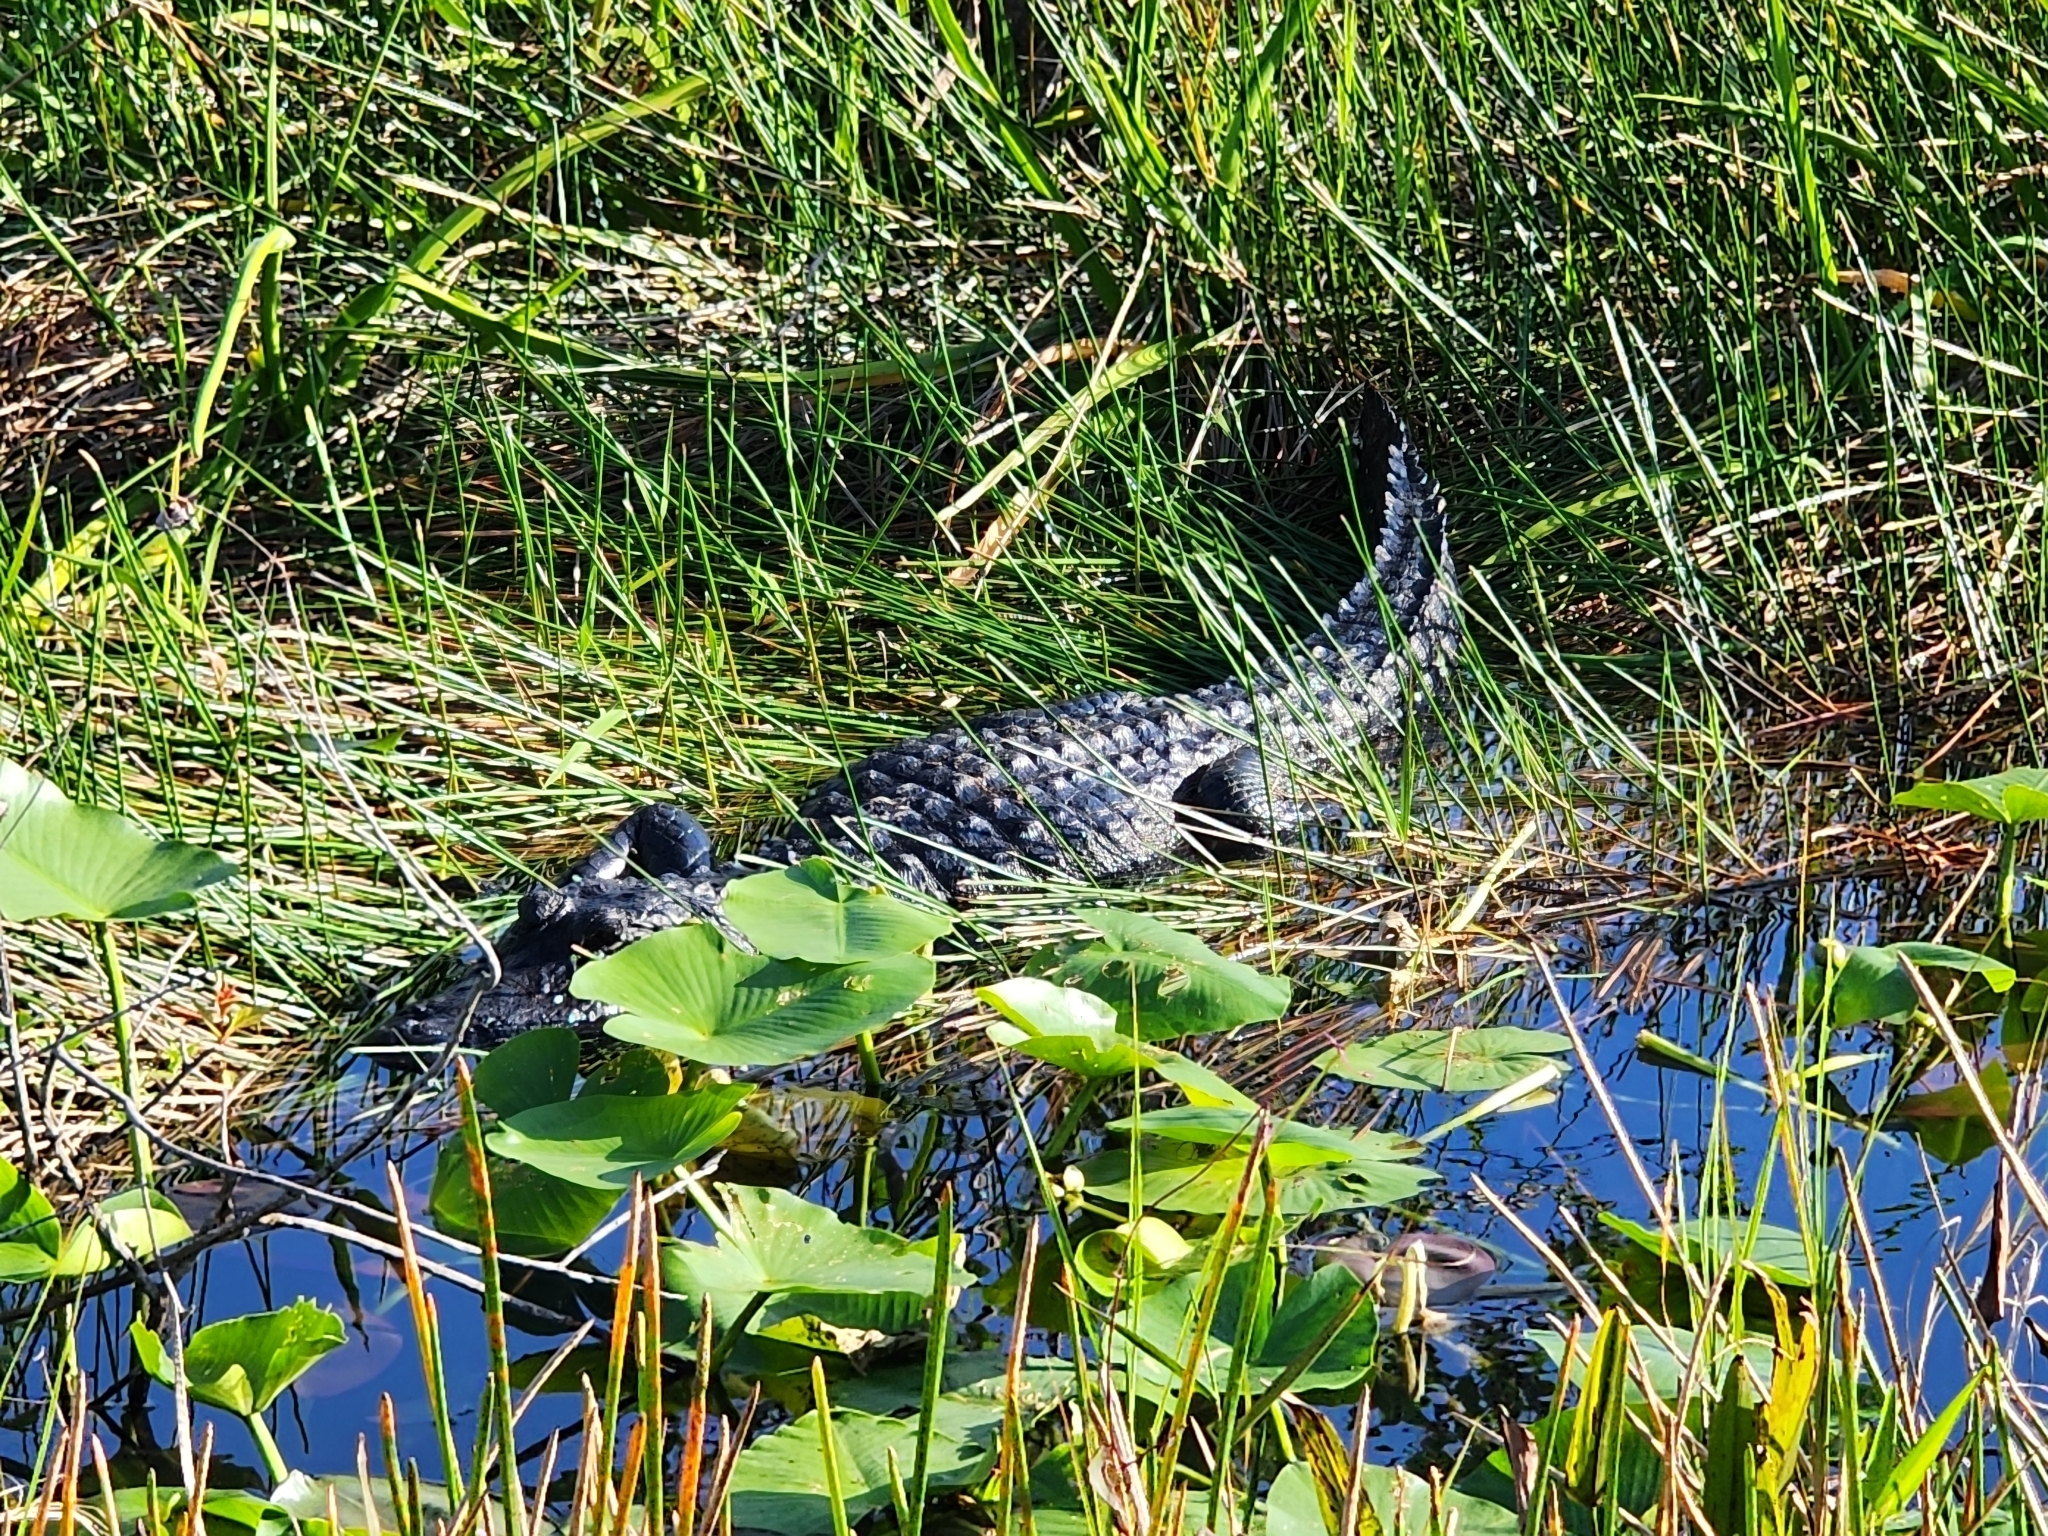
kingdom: Animalia
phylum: Chordata
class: Crocodylia
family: Alligatoridae
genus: Alligator
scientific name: Alligator mississippiensis
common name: American alligator
